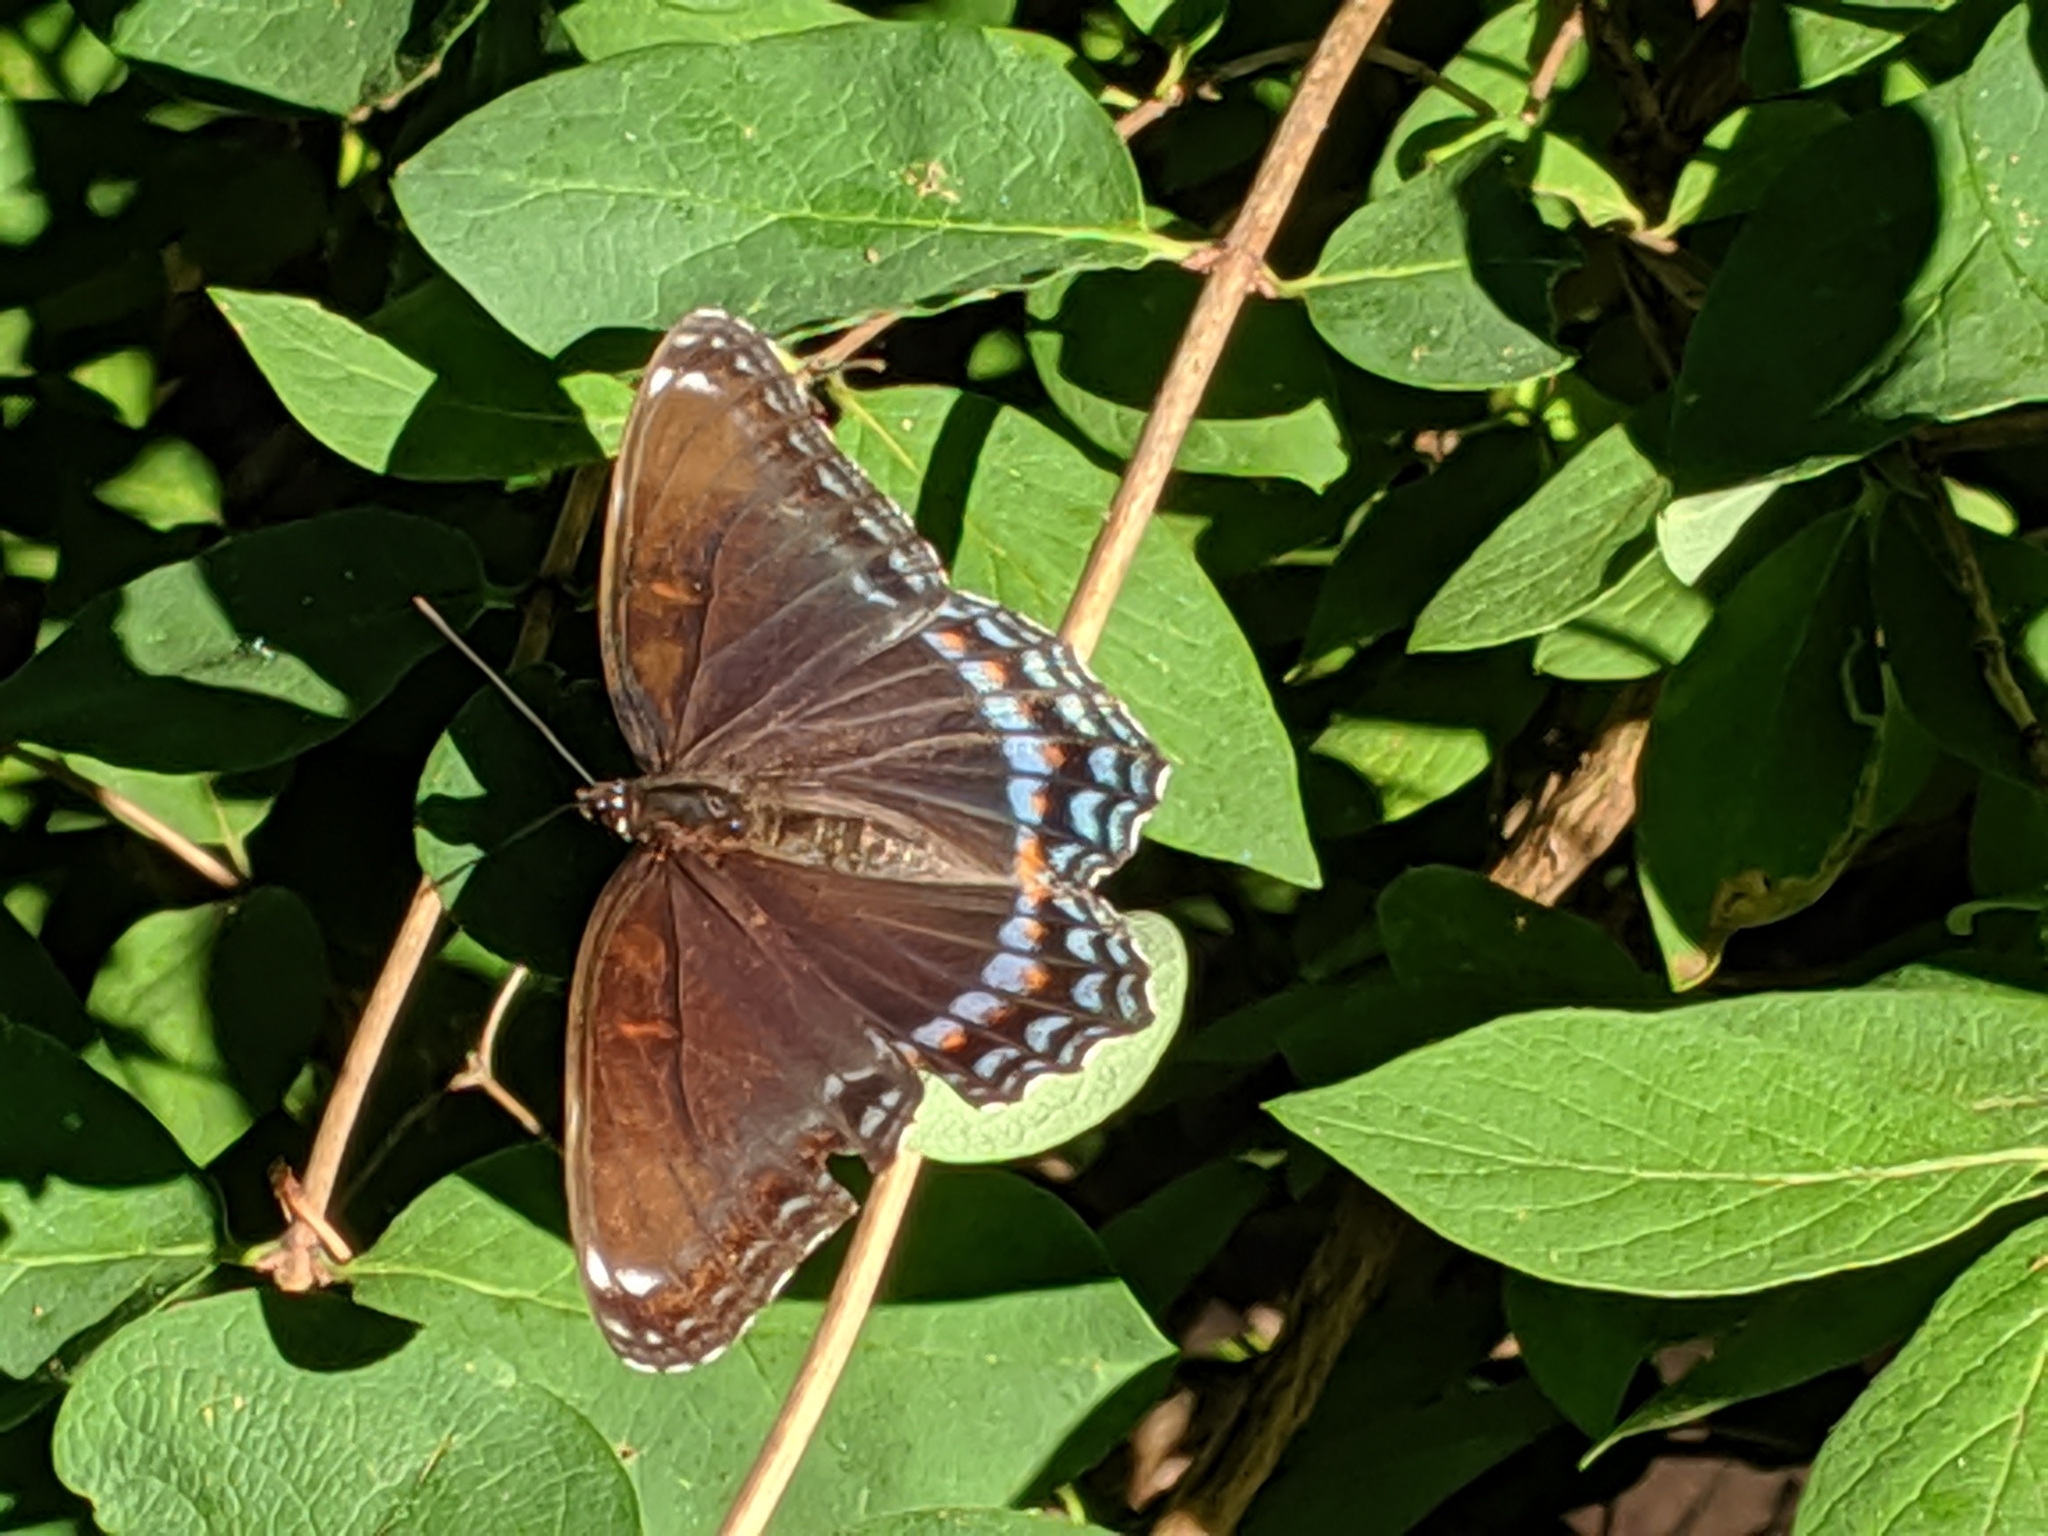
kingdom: Animalia
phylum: Arthropoda
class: Insecta
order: Lepidoptera
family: Nymphalidae
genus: Limenitis
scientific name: Limenitis astyanax
